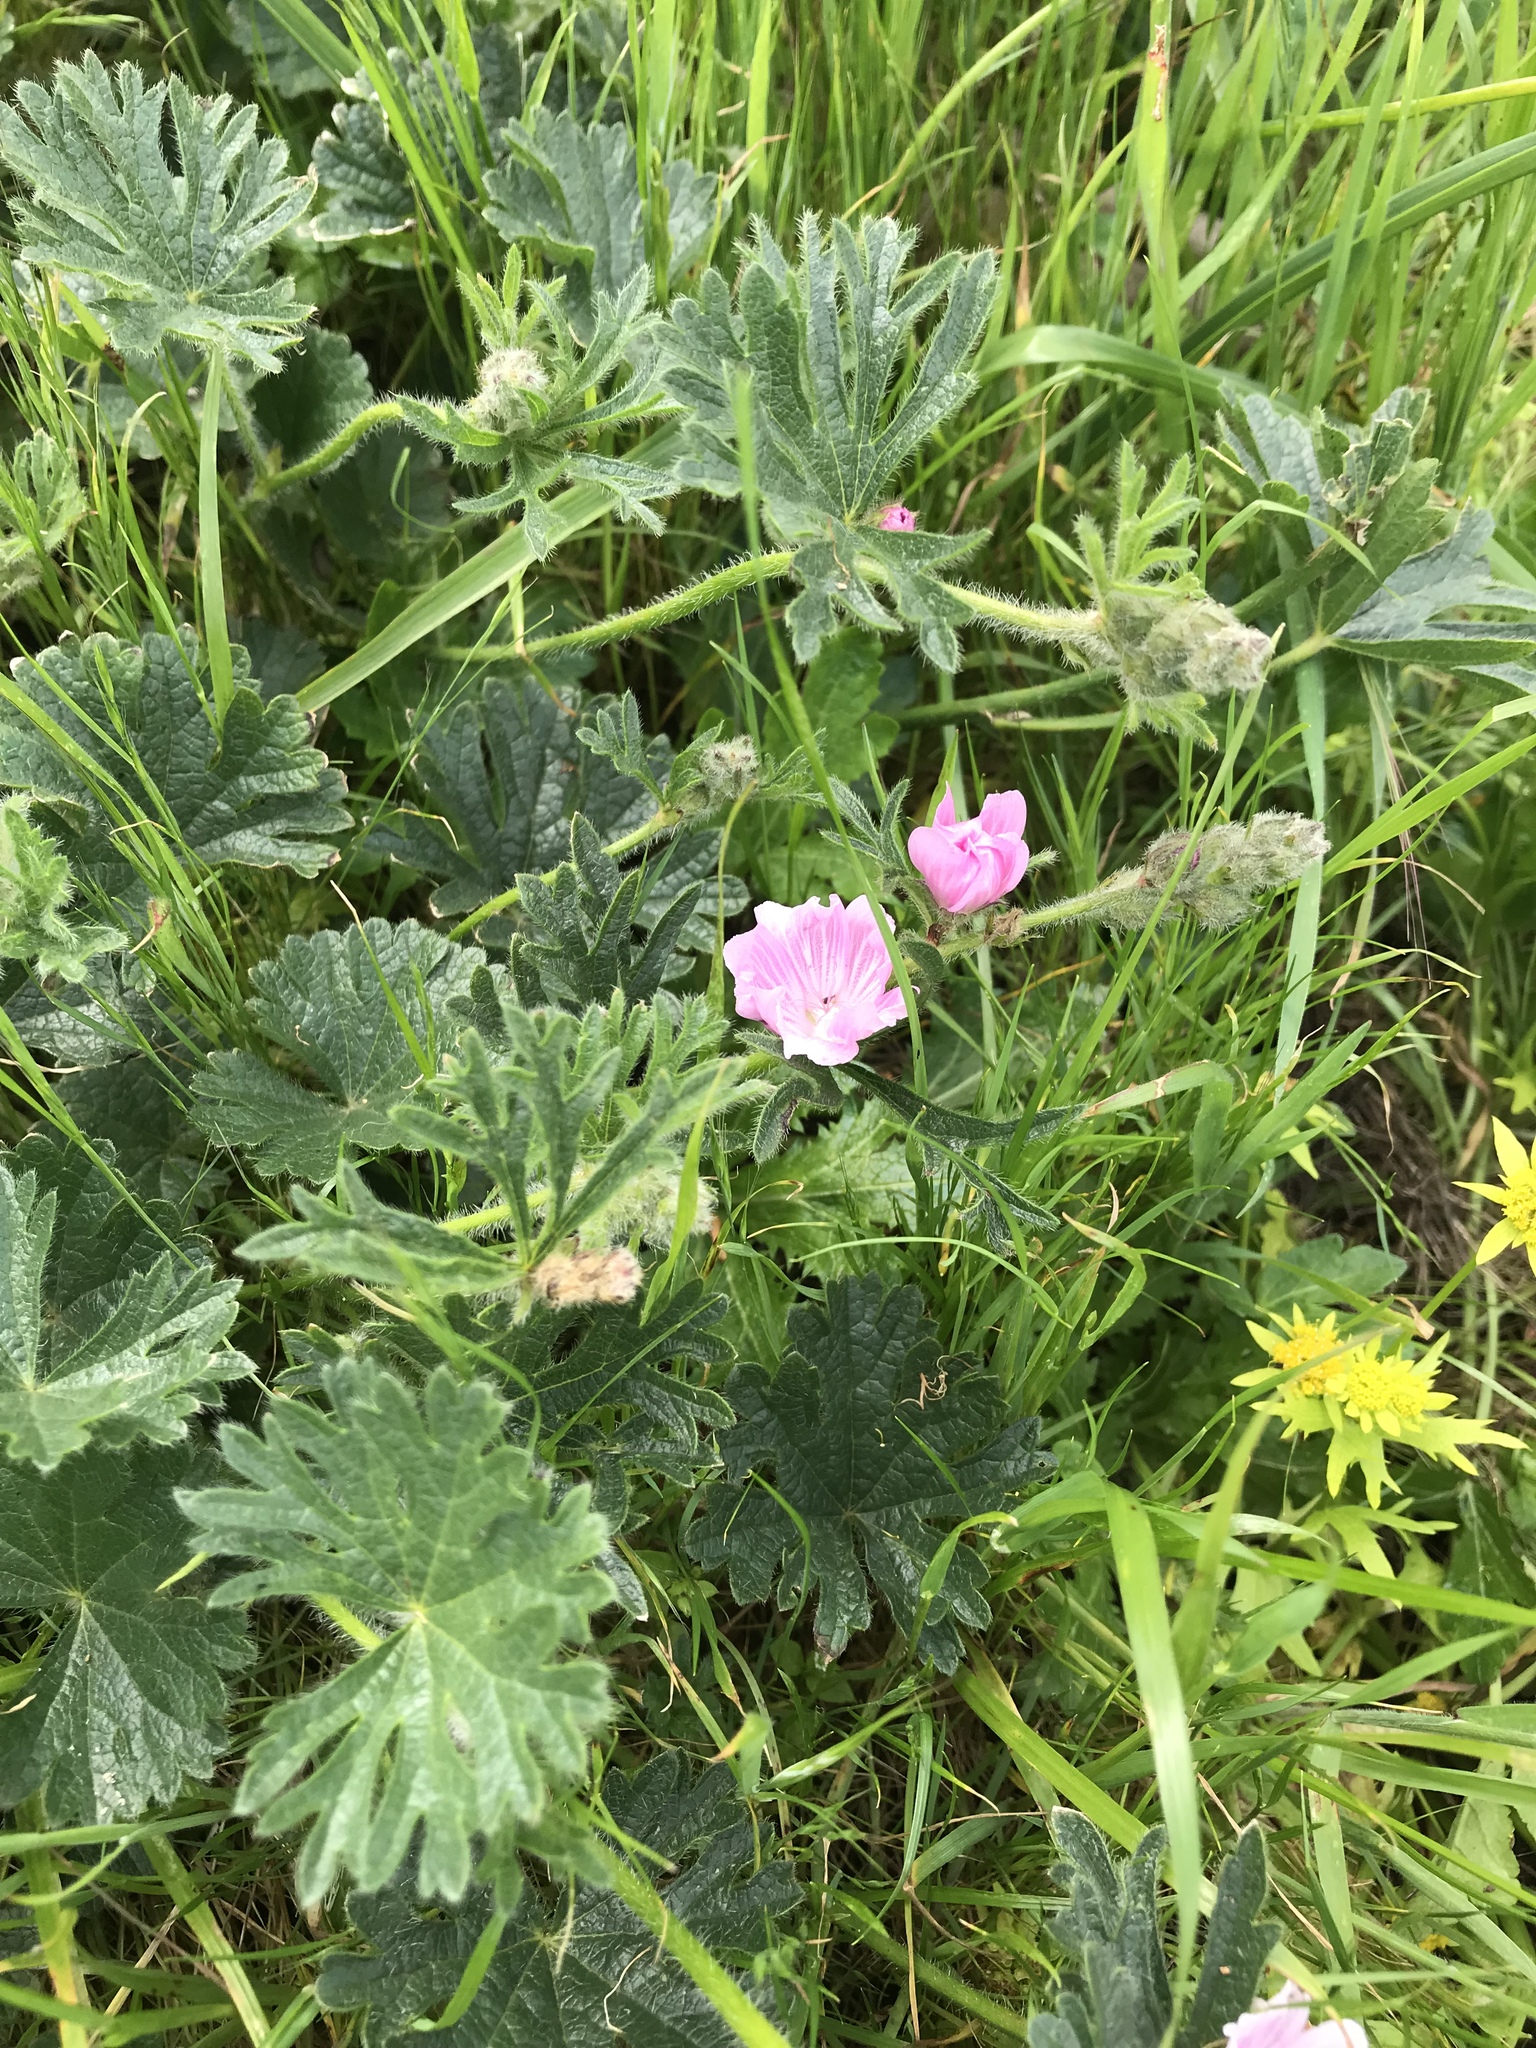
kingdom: Plantae
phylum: Tracheophyta
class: Magnoliopsida
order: Malvales
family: Malvaceae
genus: Sidalcea
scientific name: Sidalcea malviflora
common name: Greek mallow
